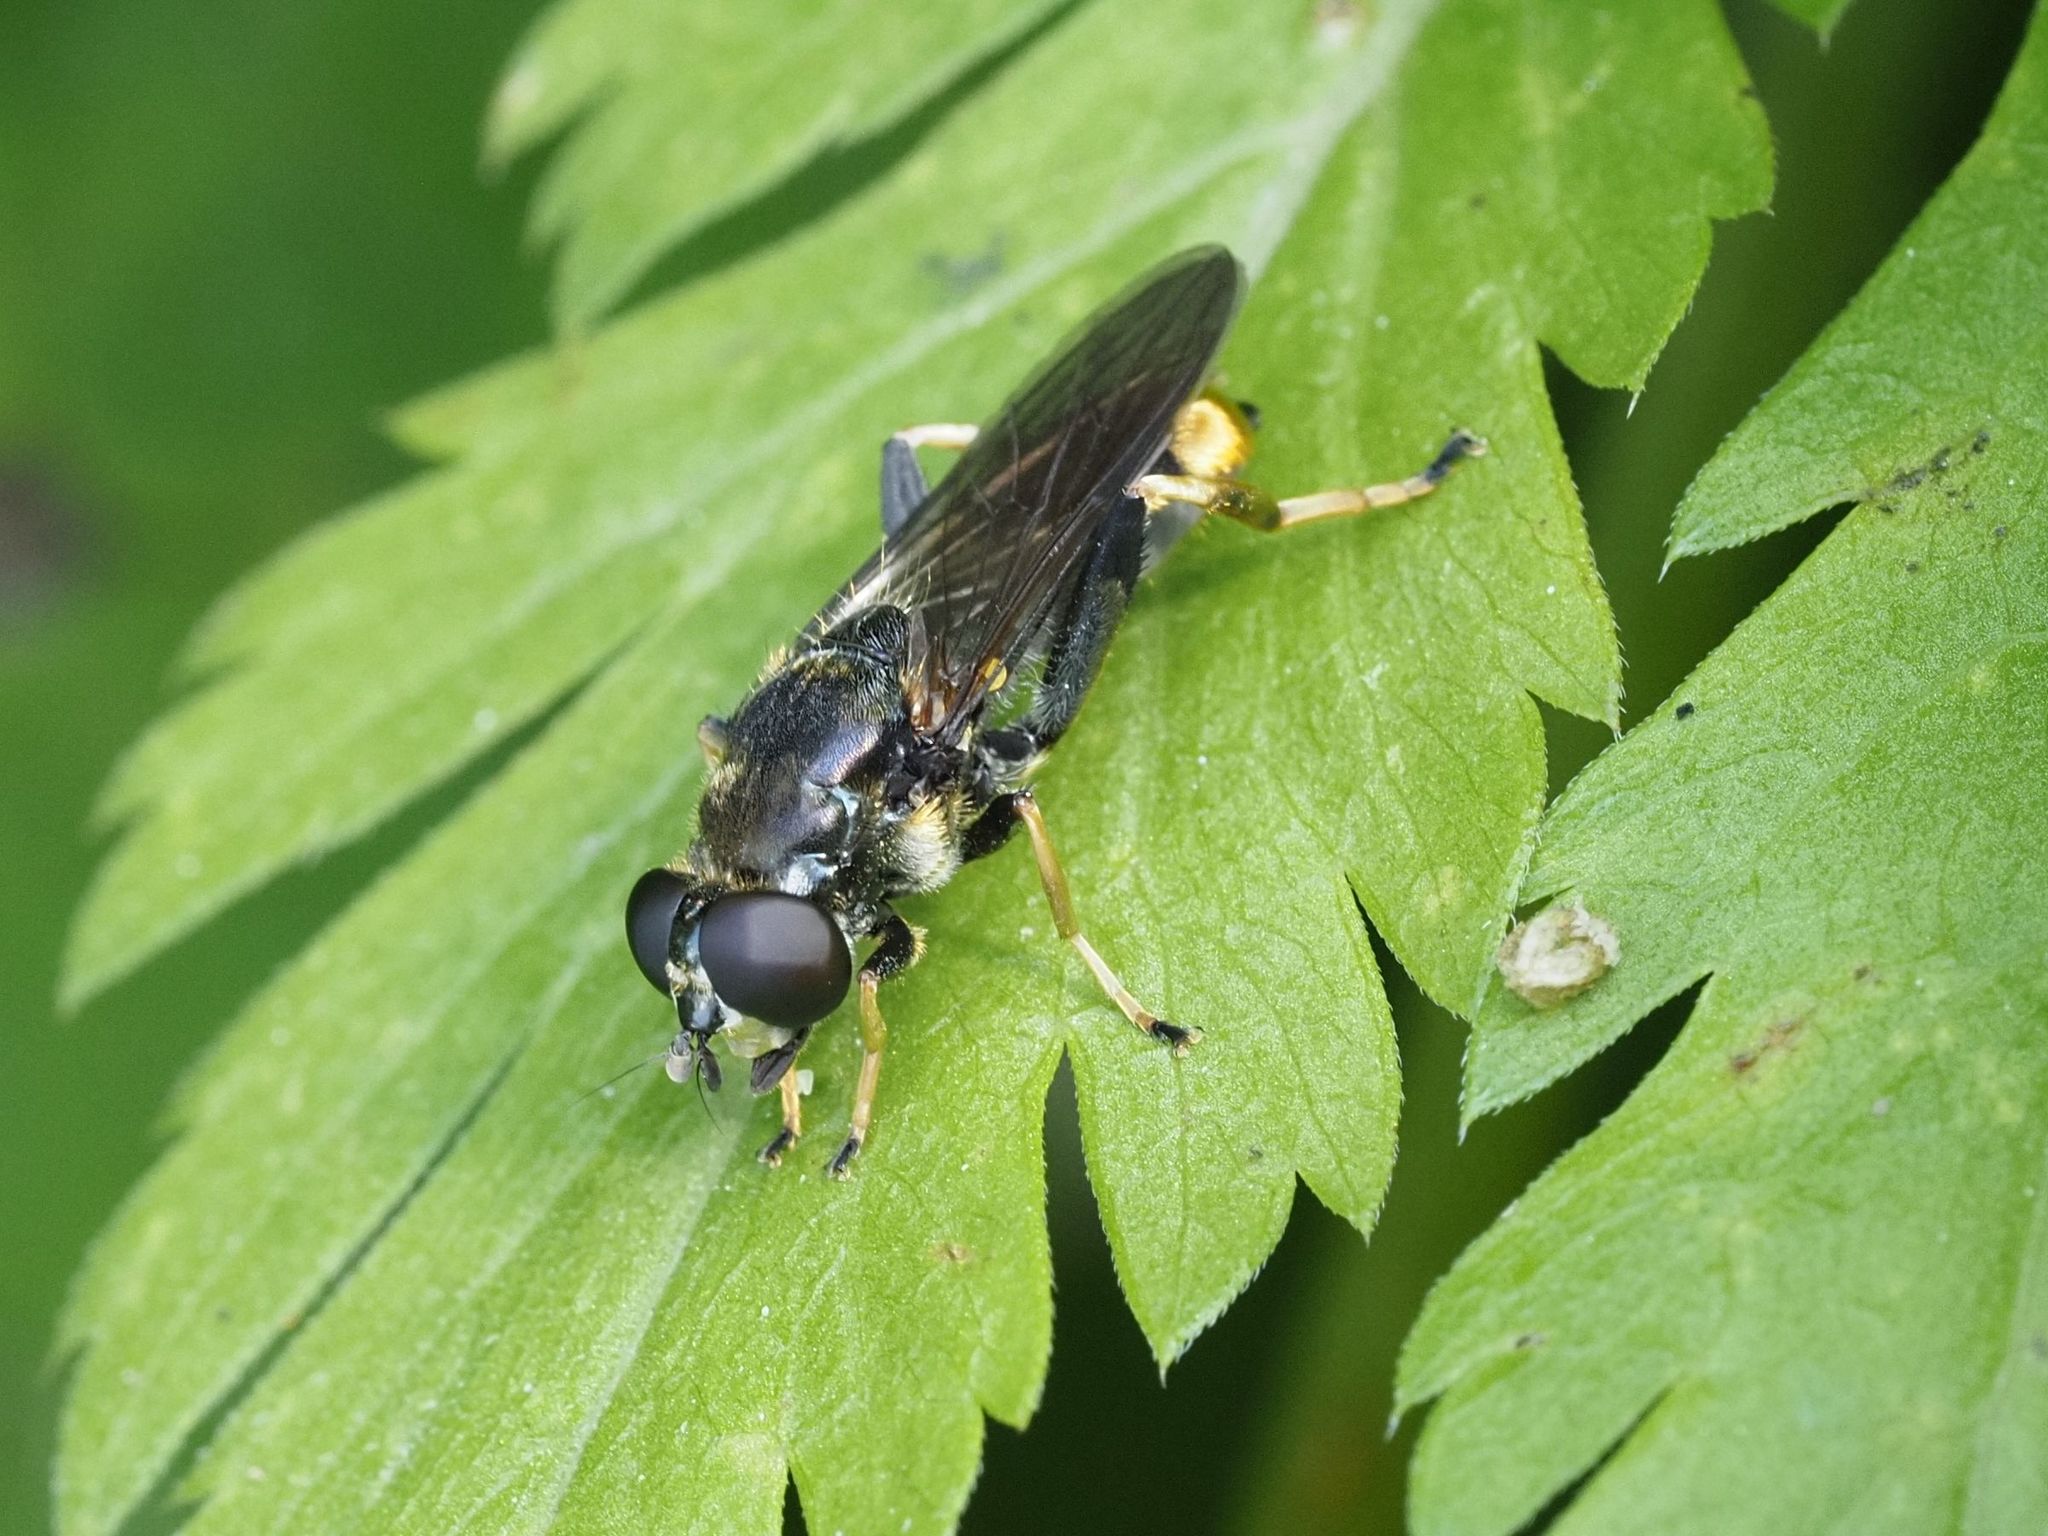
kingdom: Animalia
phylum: Arthropoda
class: Insecta
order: Diptera
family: Syrphidae
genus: Xylota
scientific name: Xylota sylvarum
